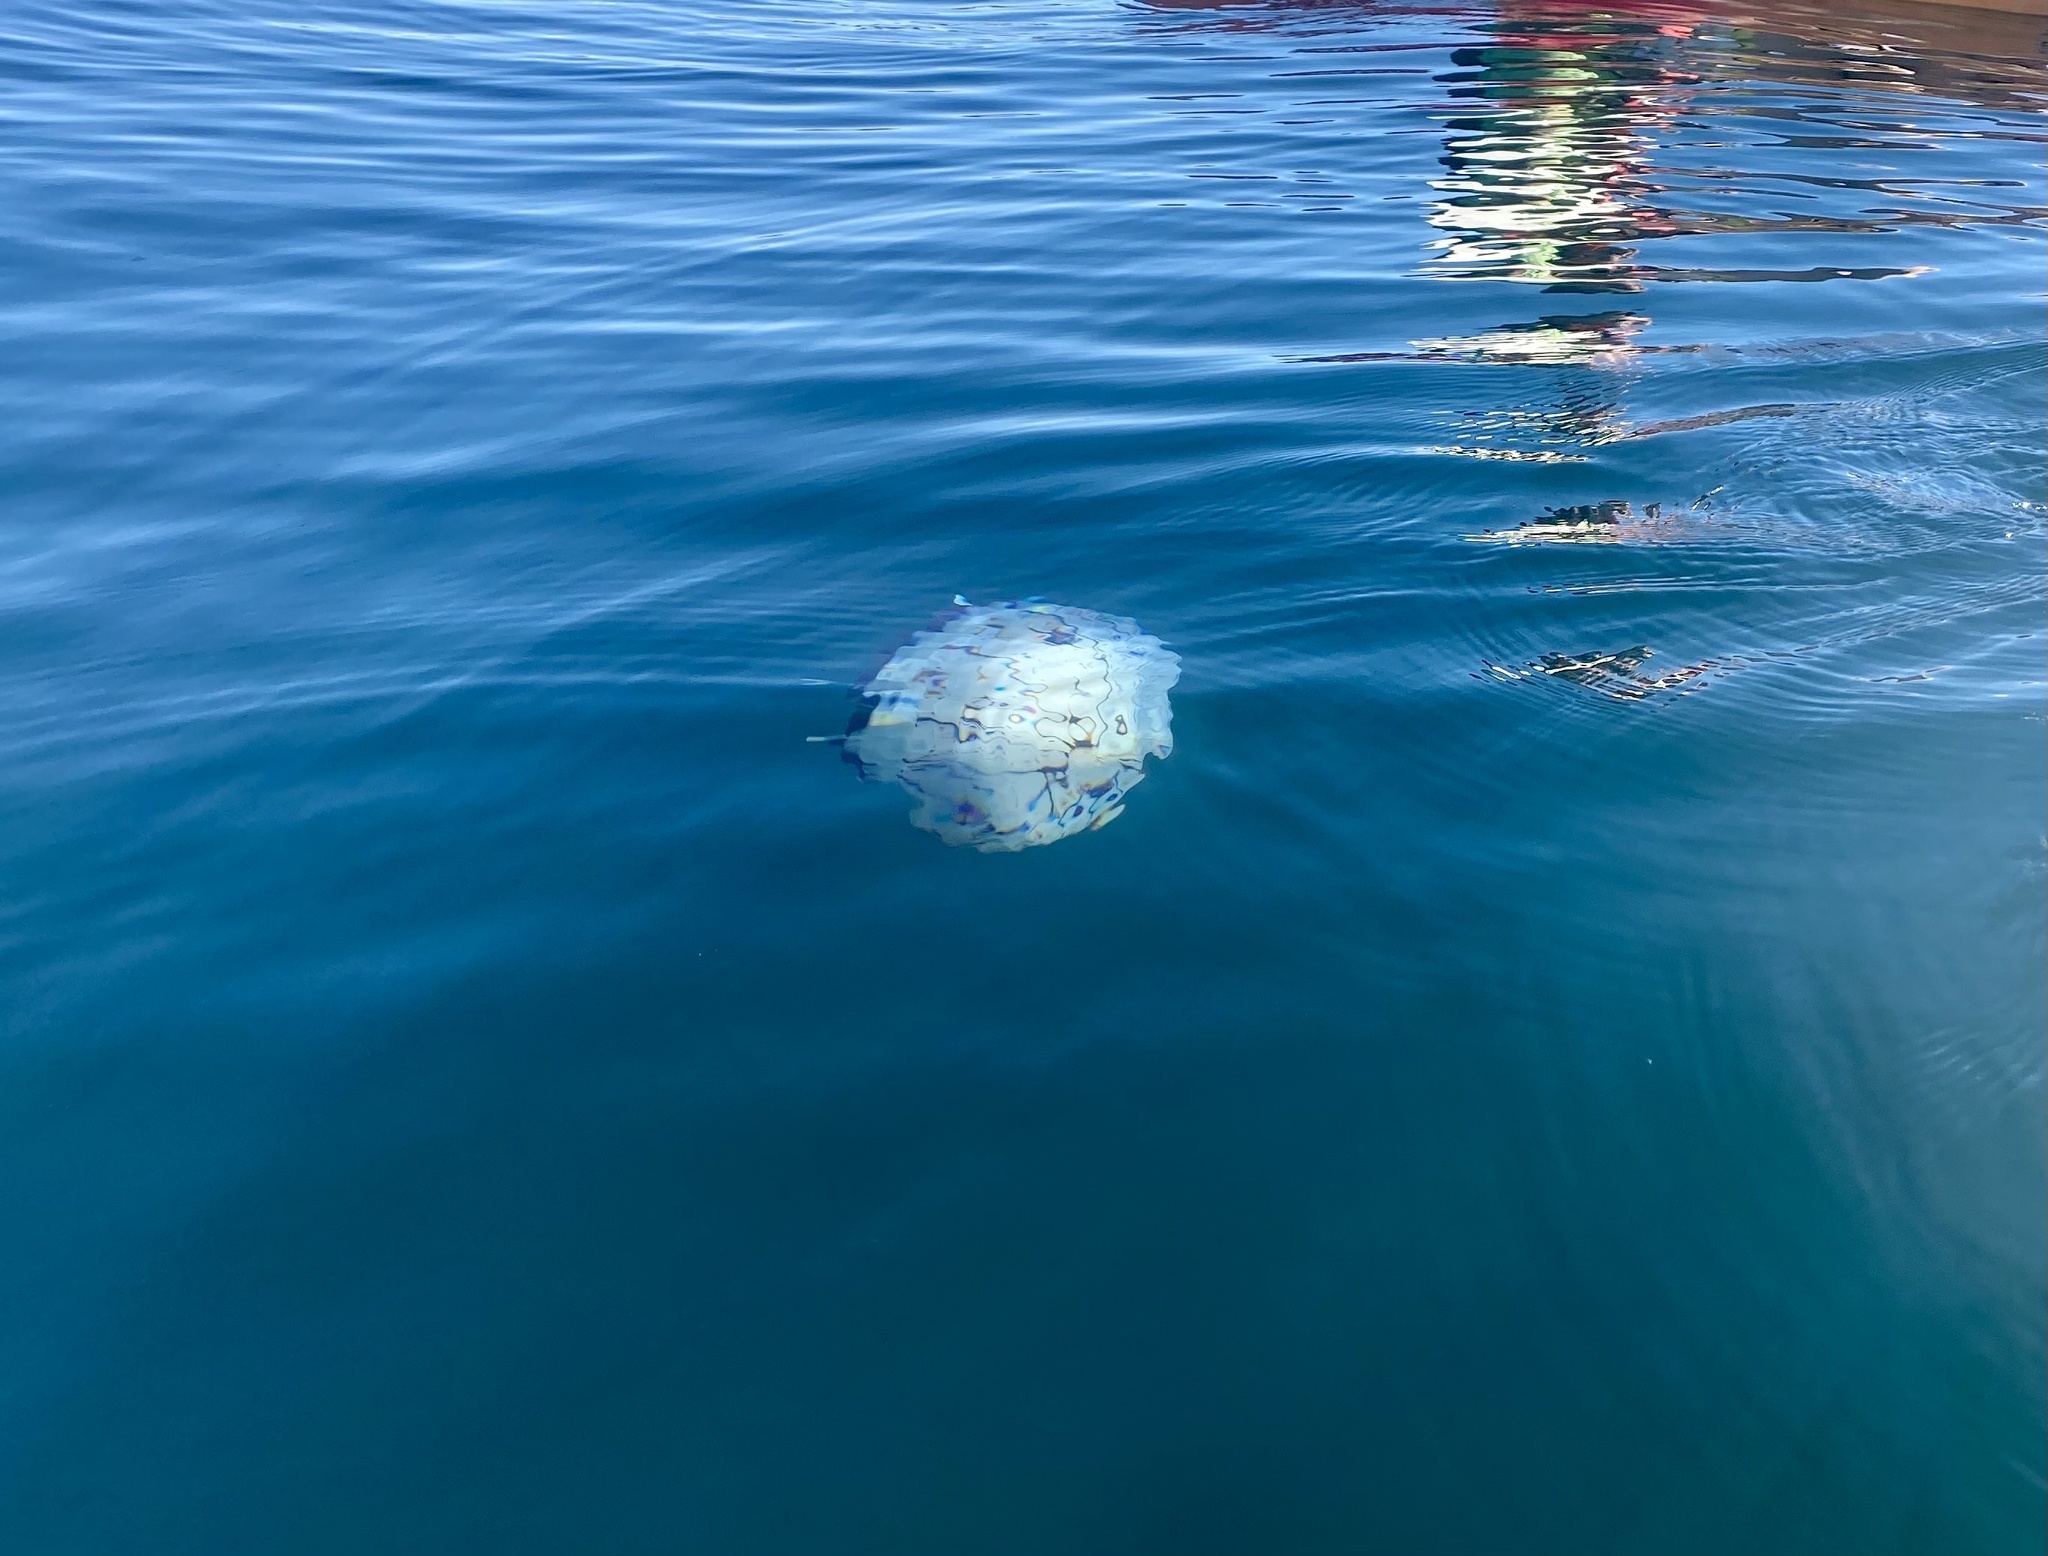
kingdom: Animalia
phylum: Cnidaria
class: Scyphozoa
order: Semaeostomeae
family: Pelagiidae
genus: Chrysaora
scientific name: Chrysaora colorata
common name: Purple-striped jellyfish
